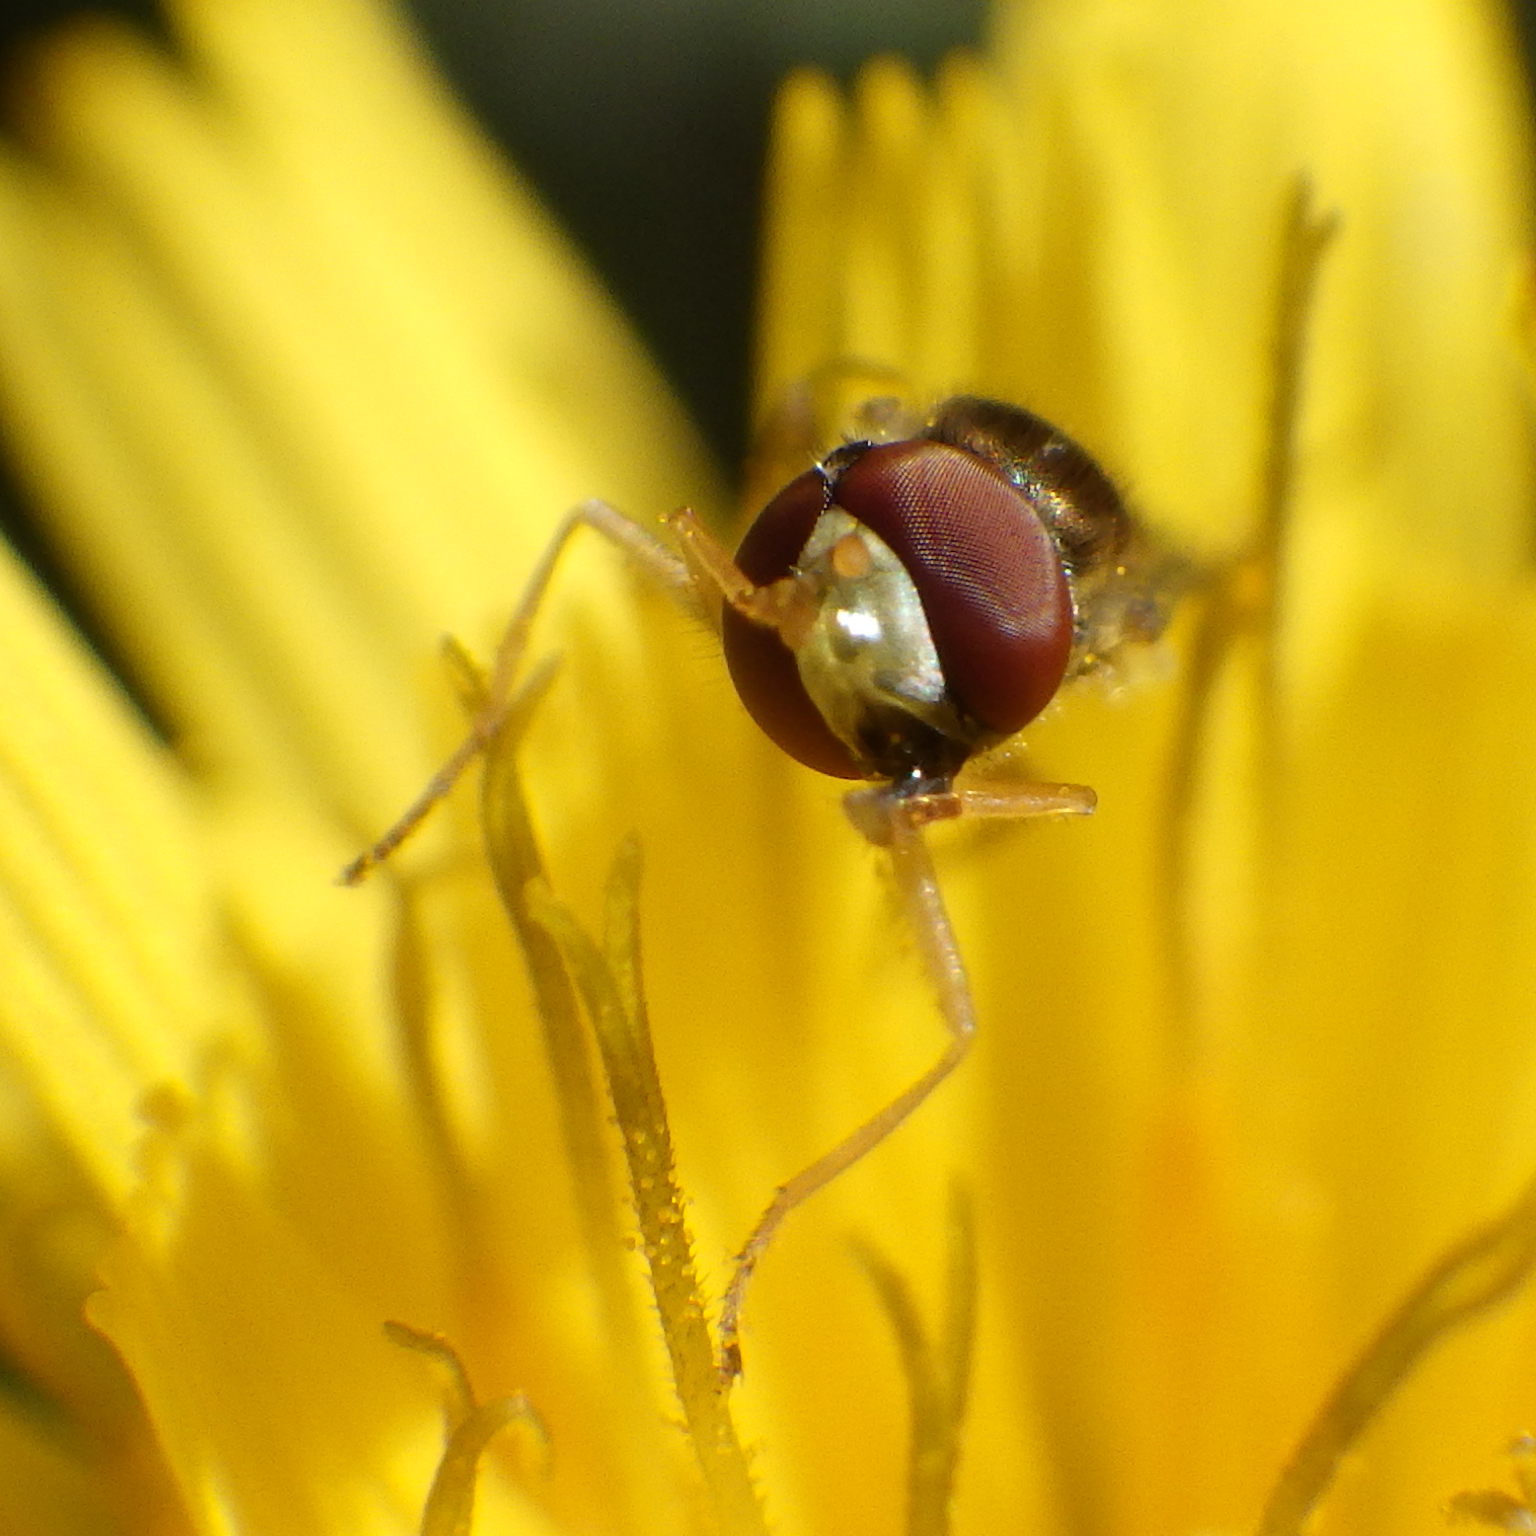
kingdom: Animalia
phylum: Arthropoda
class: Insecta
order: Diptera
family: Syrphidae
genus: Toxomerus
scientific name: Toxomerus marginatus
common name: Syrphid fly
